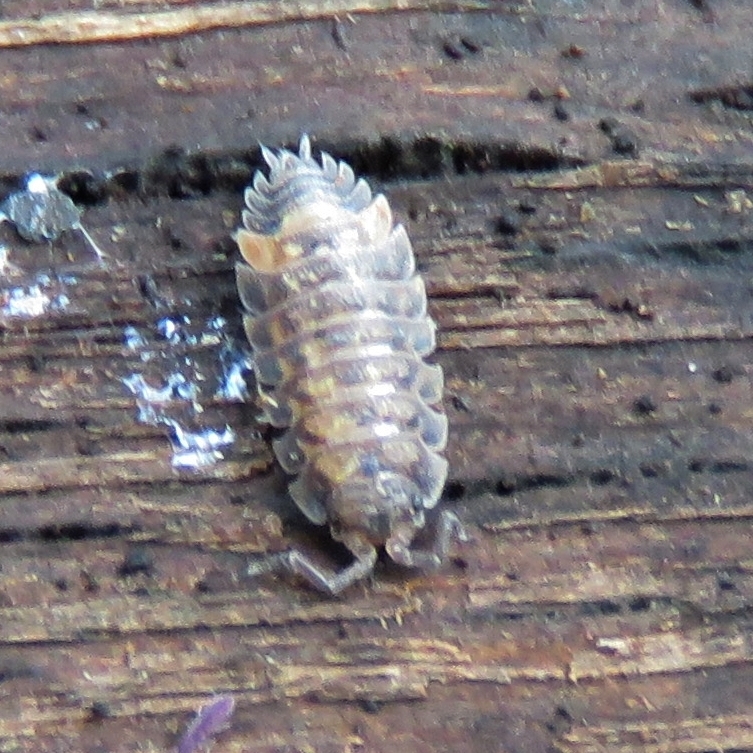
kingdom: Animalia
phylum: Arthropoda
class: Malacostraca
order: Isopoda
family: Oniscidae
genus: Oniscus
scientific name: Oniscus asellus
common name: Common shiny woodlouse
